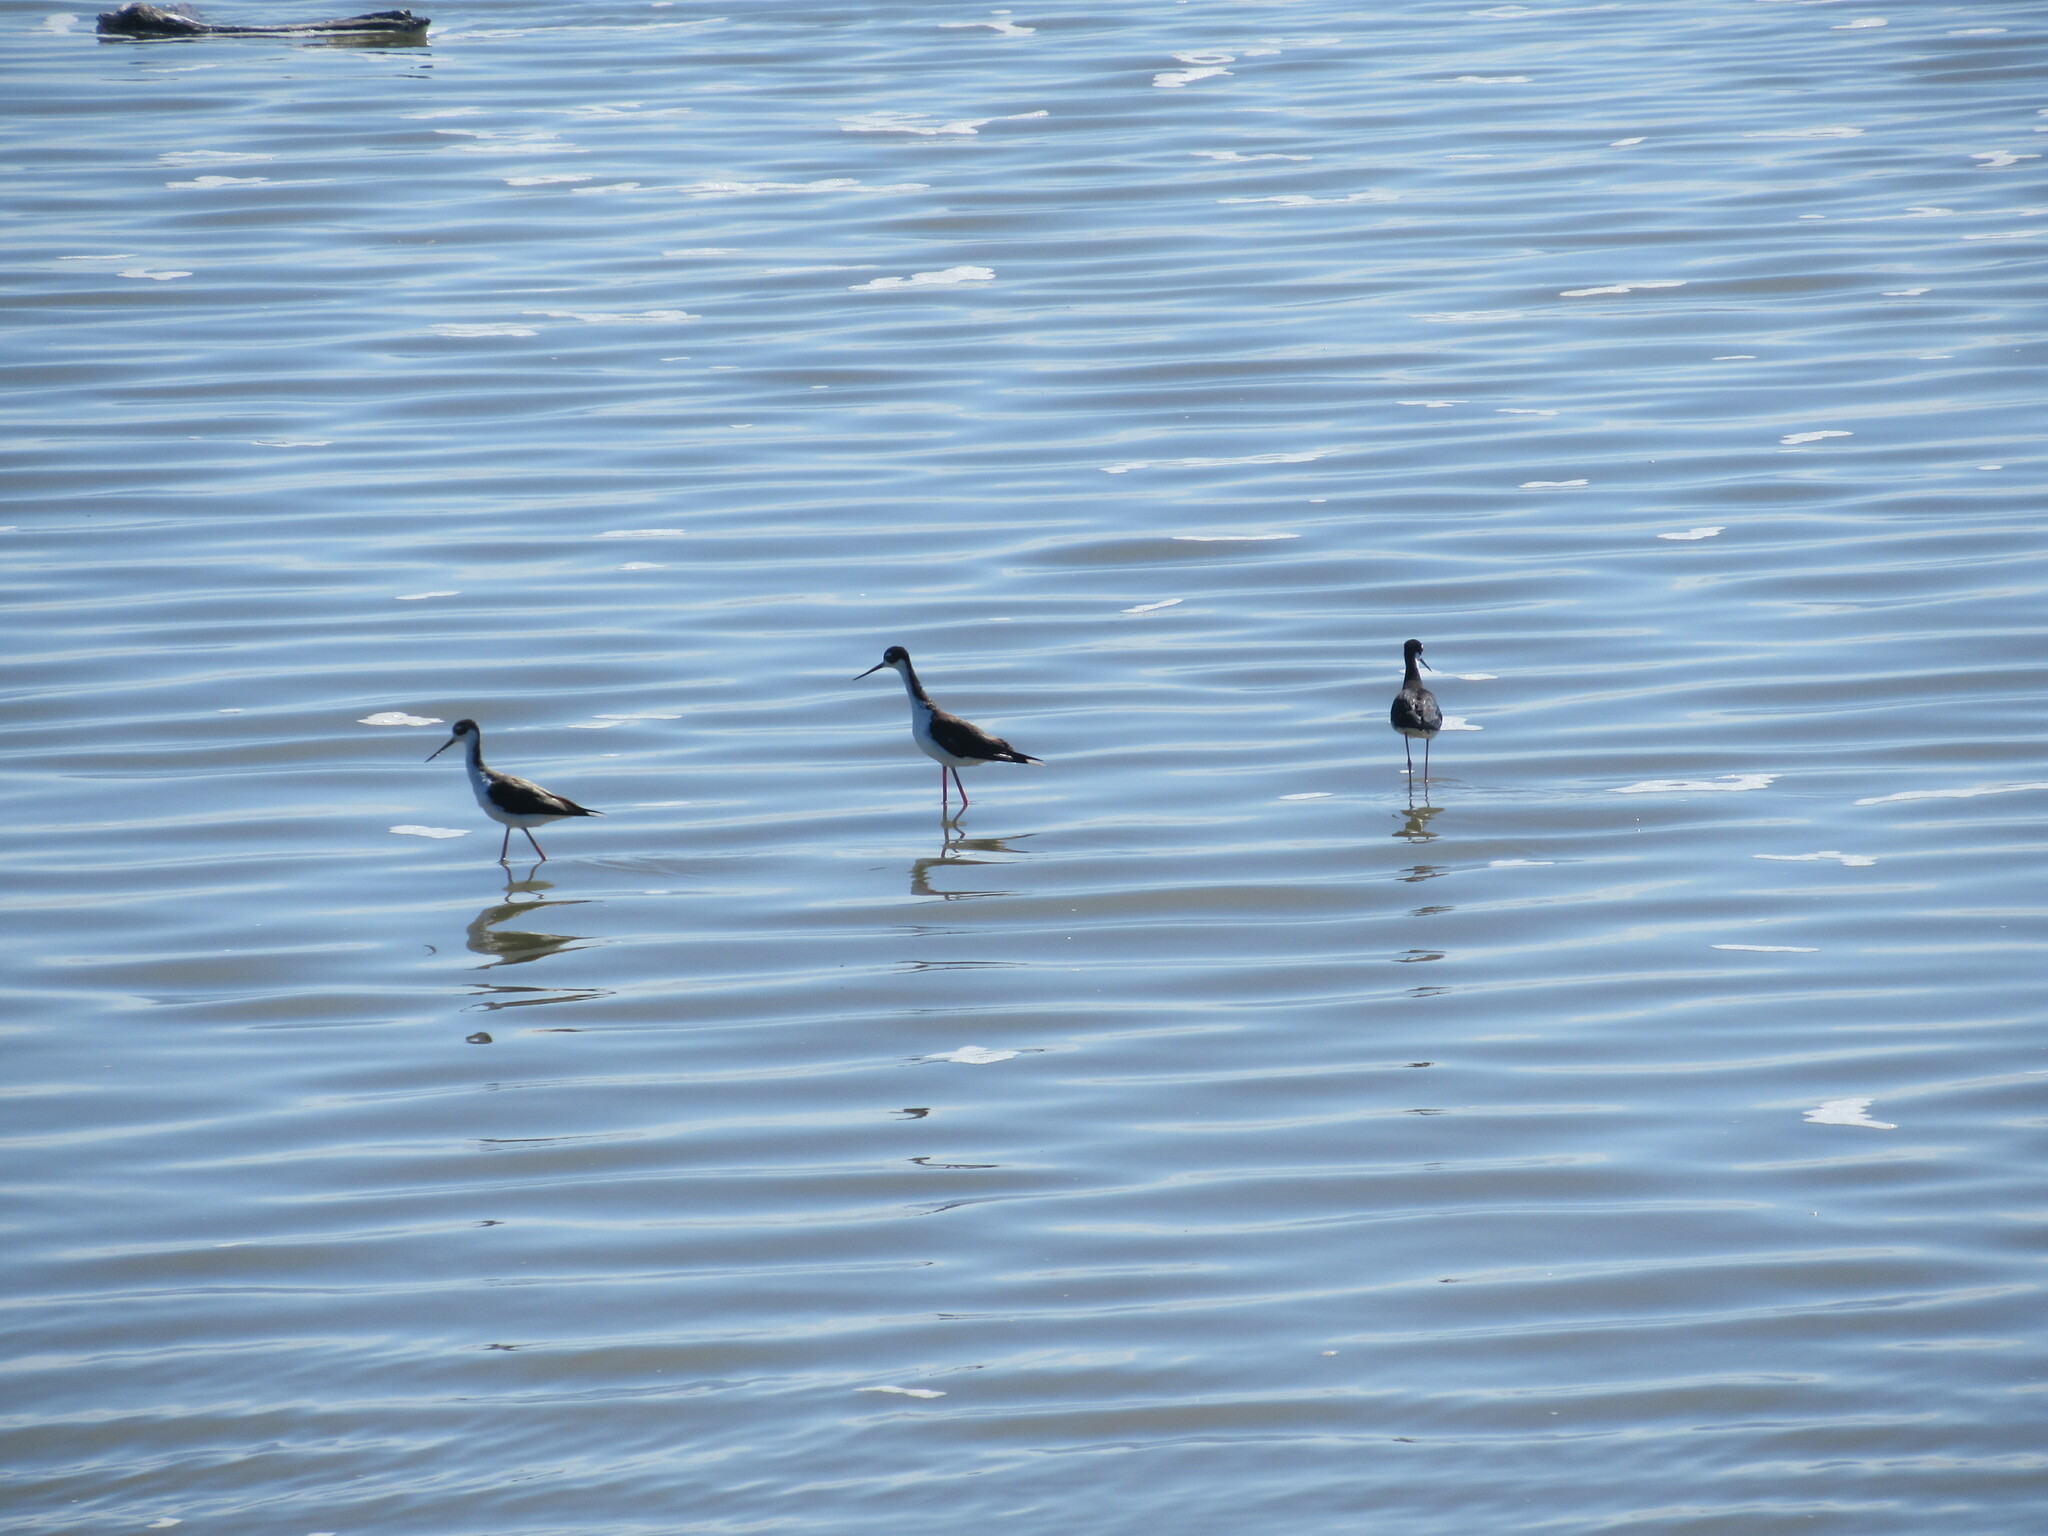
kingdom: Animalia
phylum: Chordata
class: Aves
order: Charadriiformes
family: Recurvirostridae
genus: Himantopus
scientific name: Himantopus mexicanus
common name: Black-necked stilt
